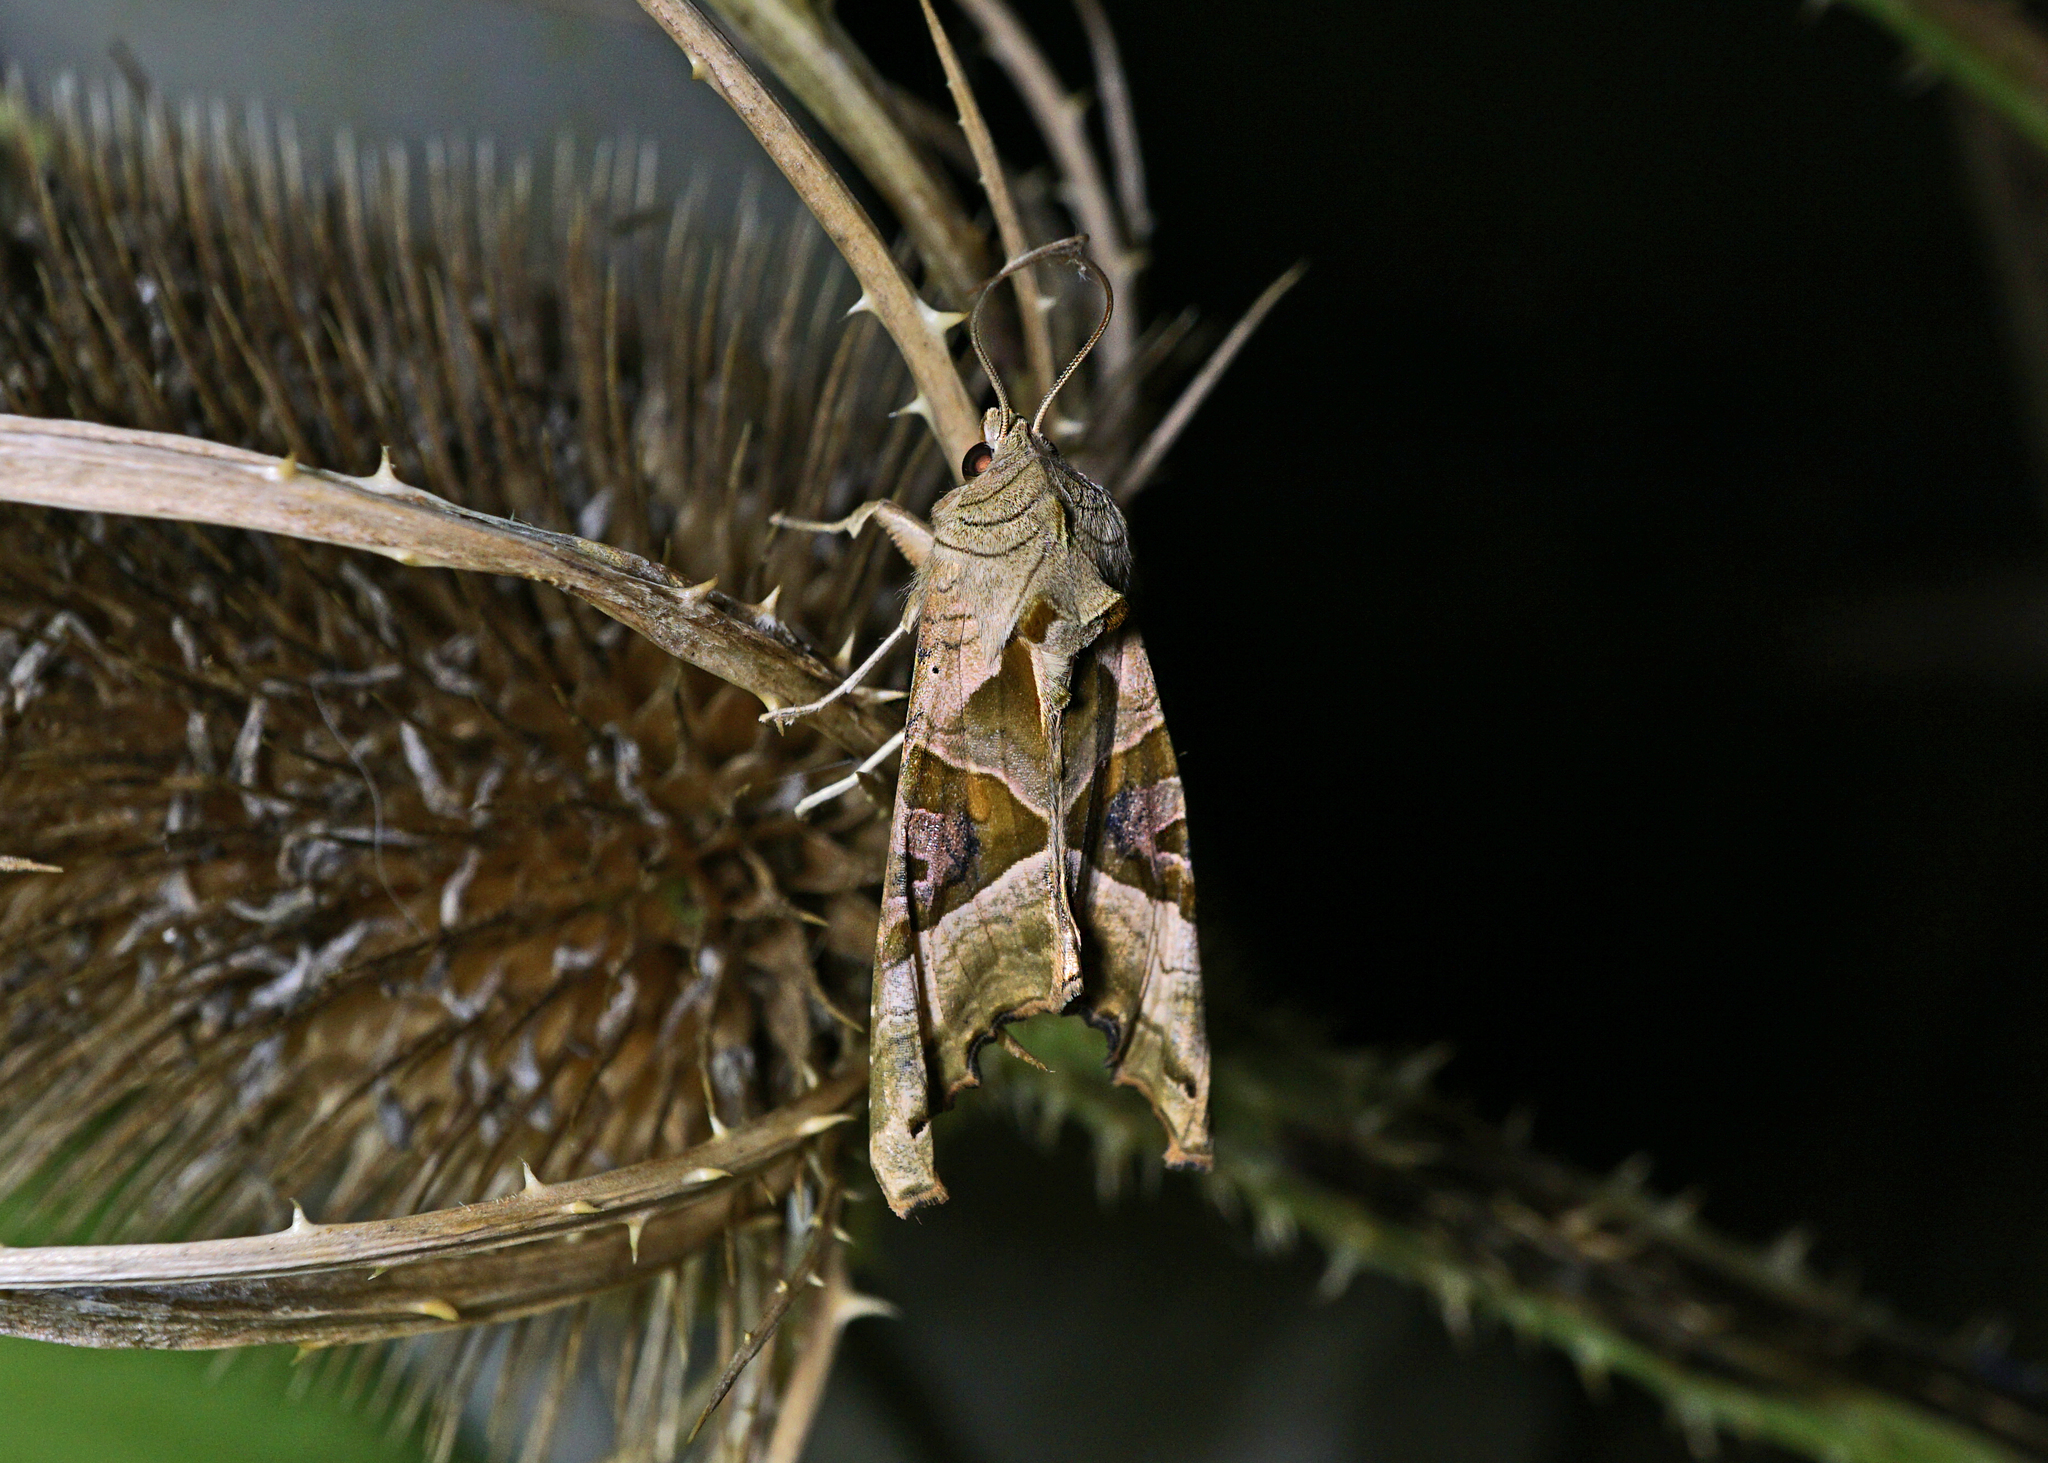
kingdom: Animalia
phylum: Arthropoda
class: Insecta
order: Lepidoptera
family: Noctuidae
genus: Phlogophora
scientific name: Phlogophora meticulosa
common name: Angle shades
